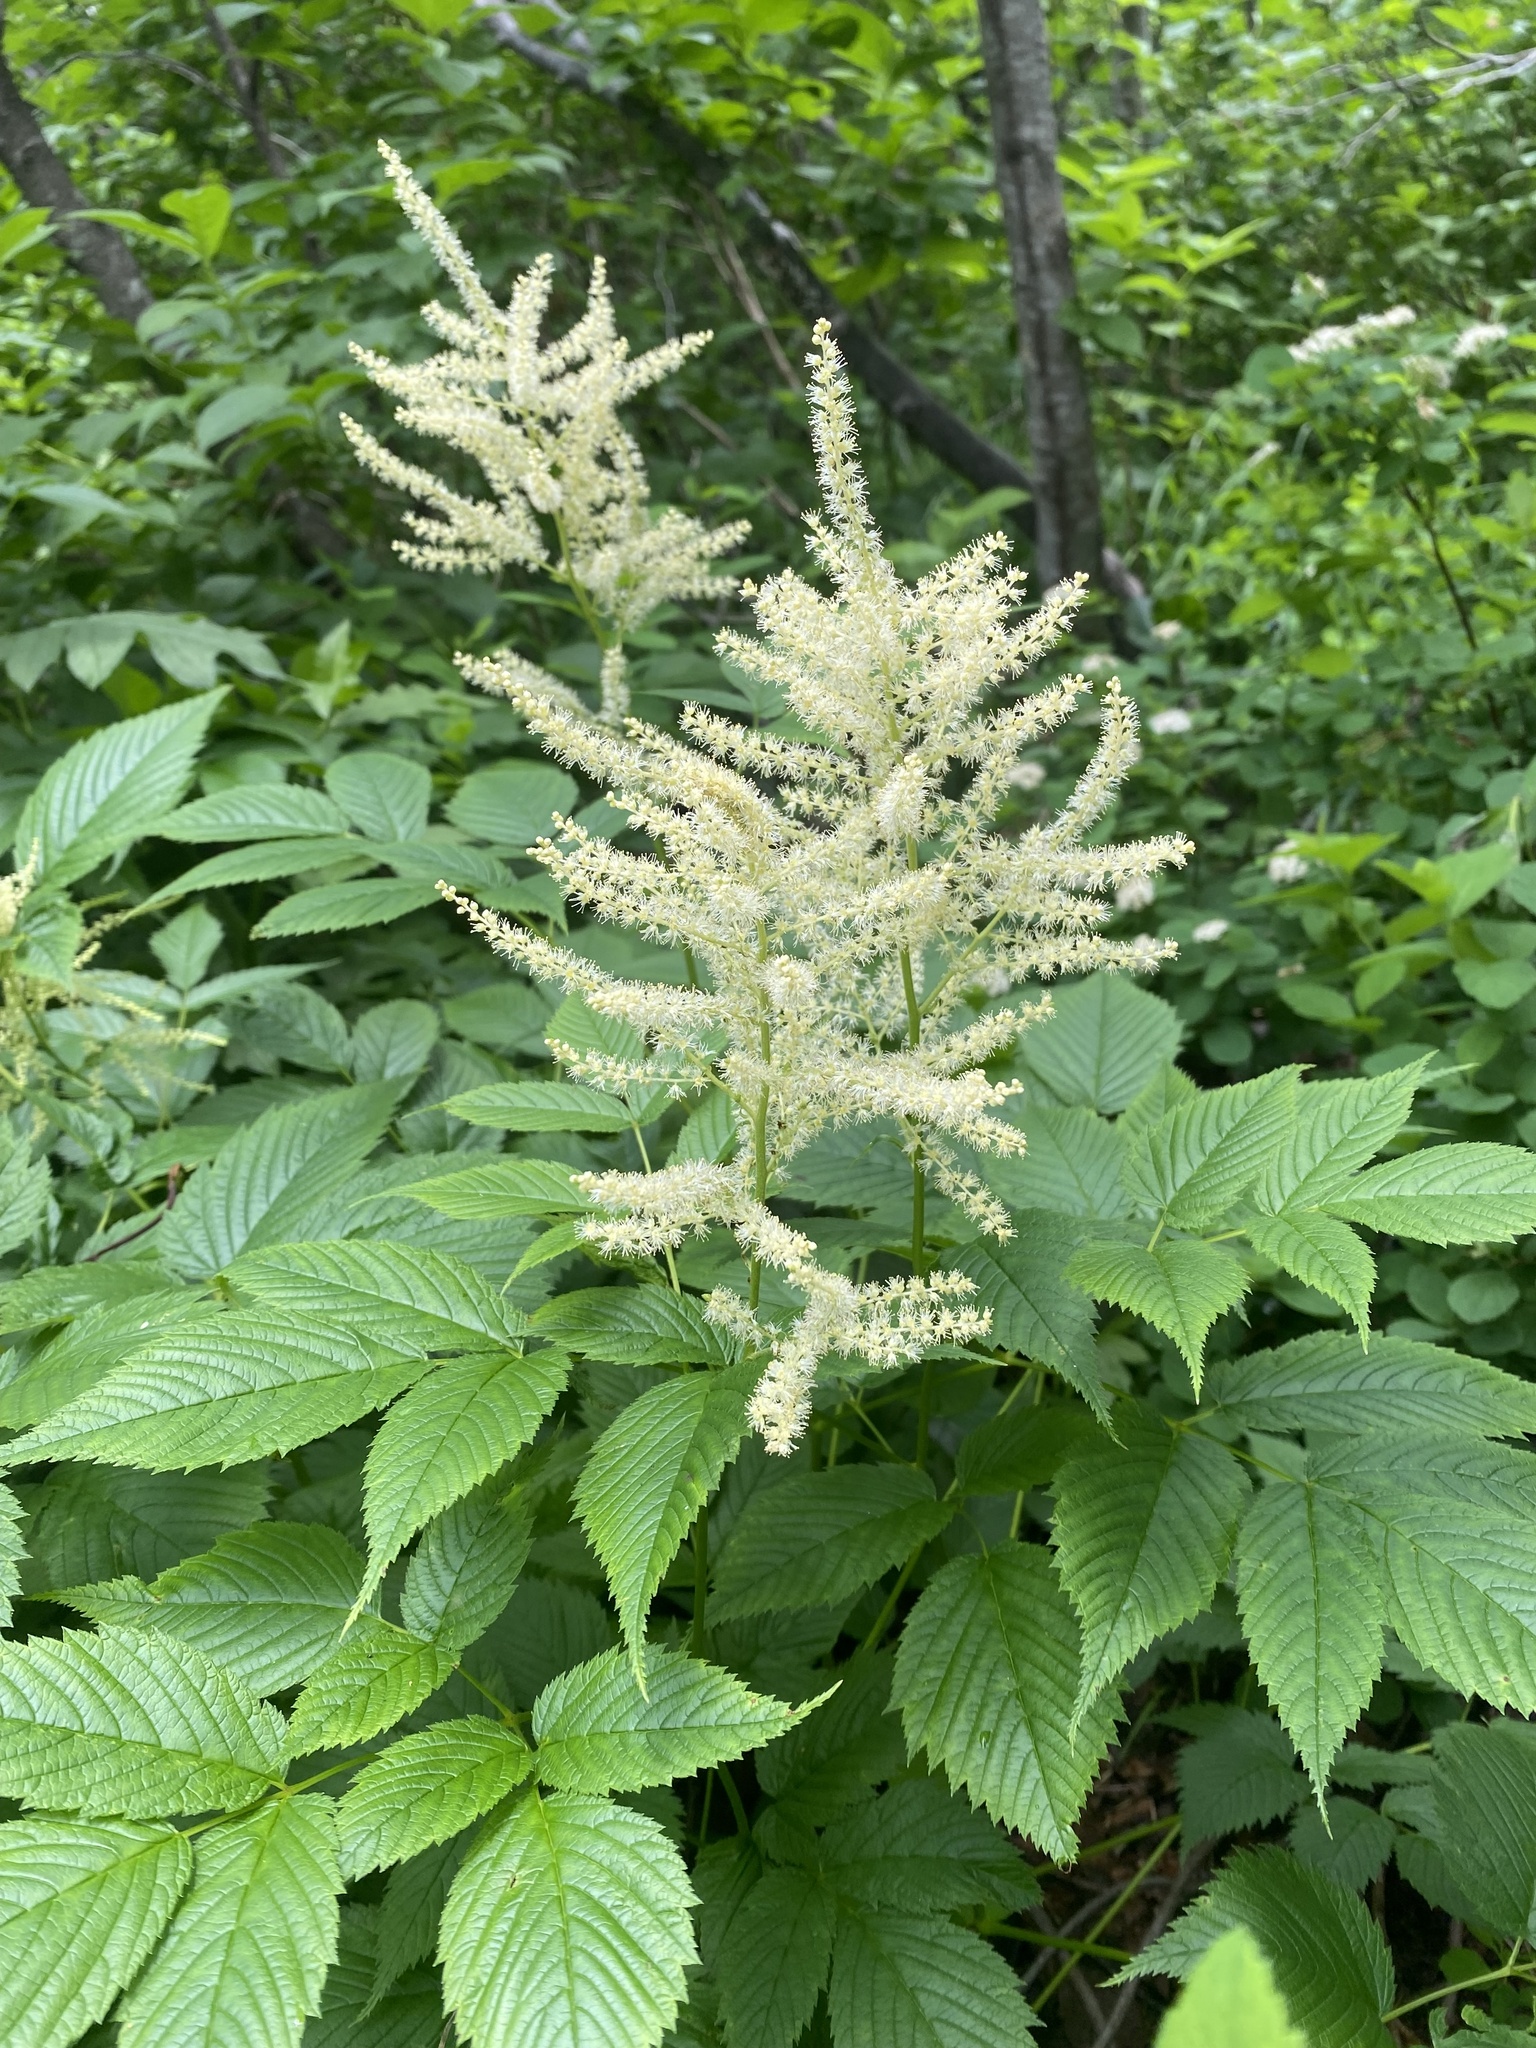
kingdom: Plantae
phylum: Tracheophyta
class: Magnoliopsida
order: Rosales
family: Rosaceae
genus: Aruncus
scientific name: Aruncus dioicus
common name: Buck's-beard
